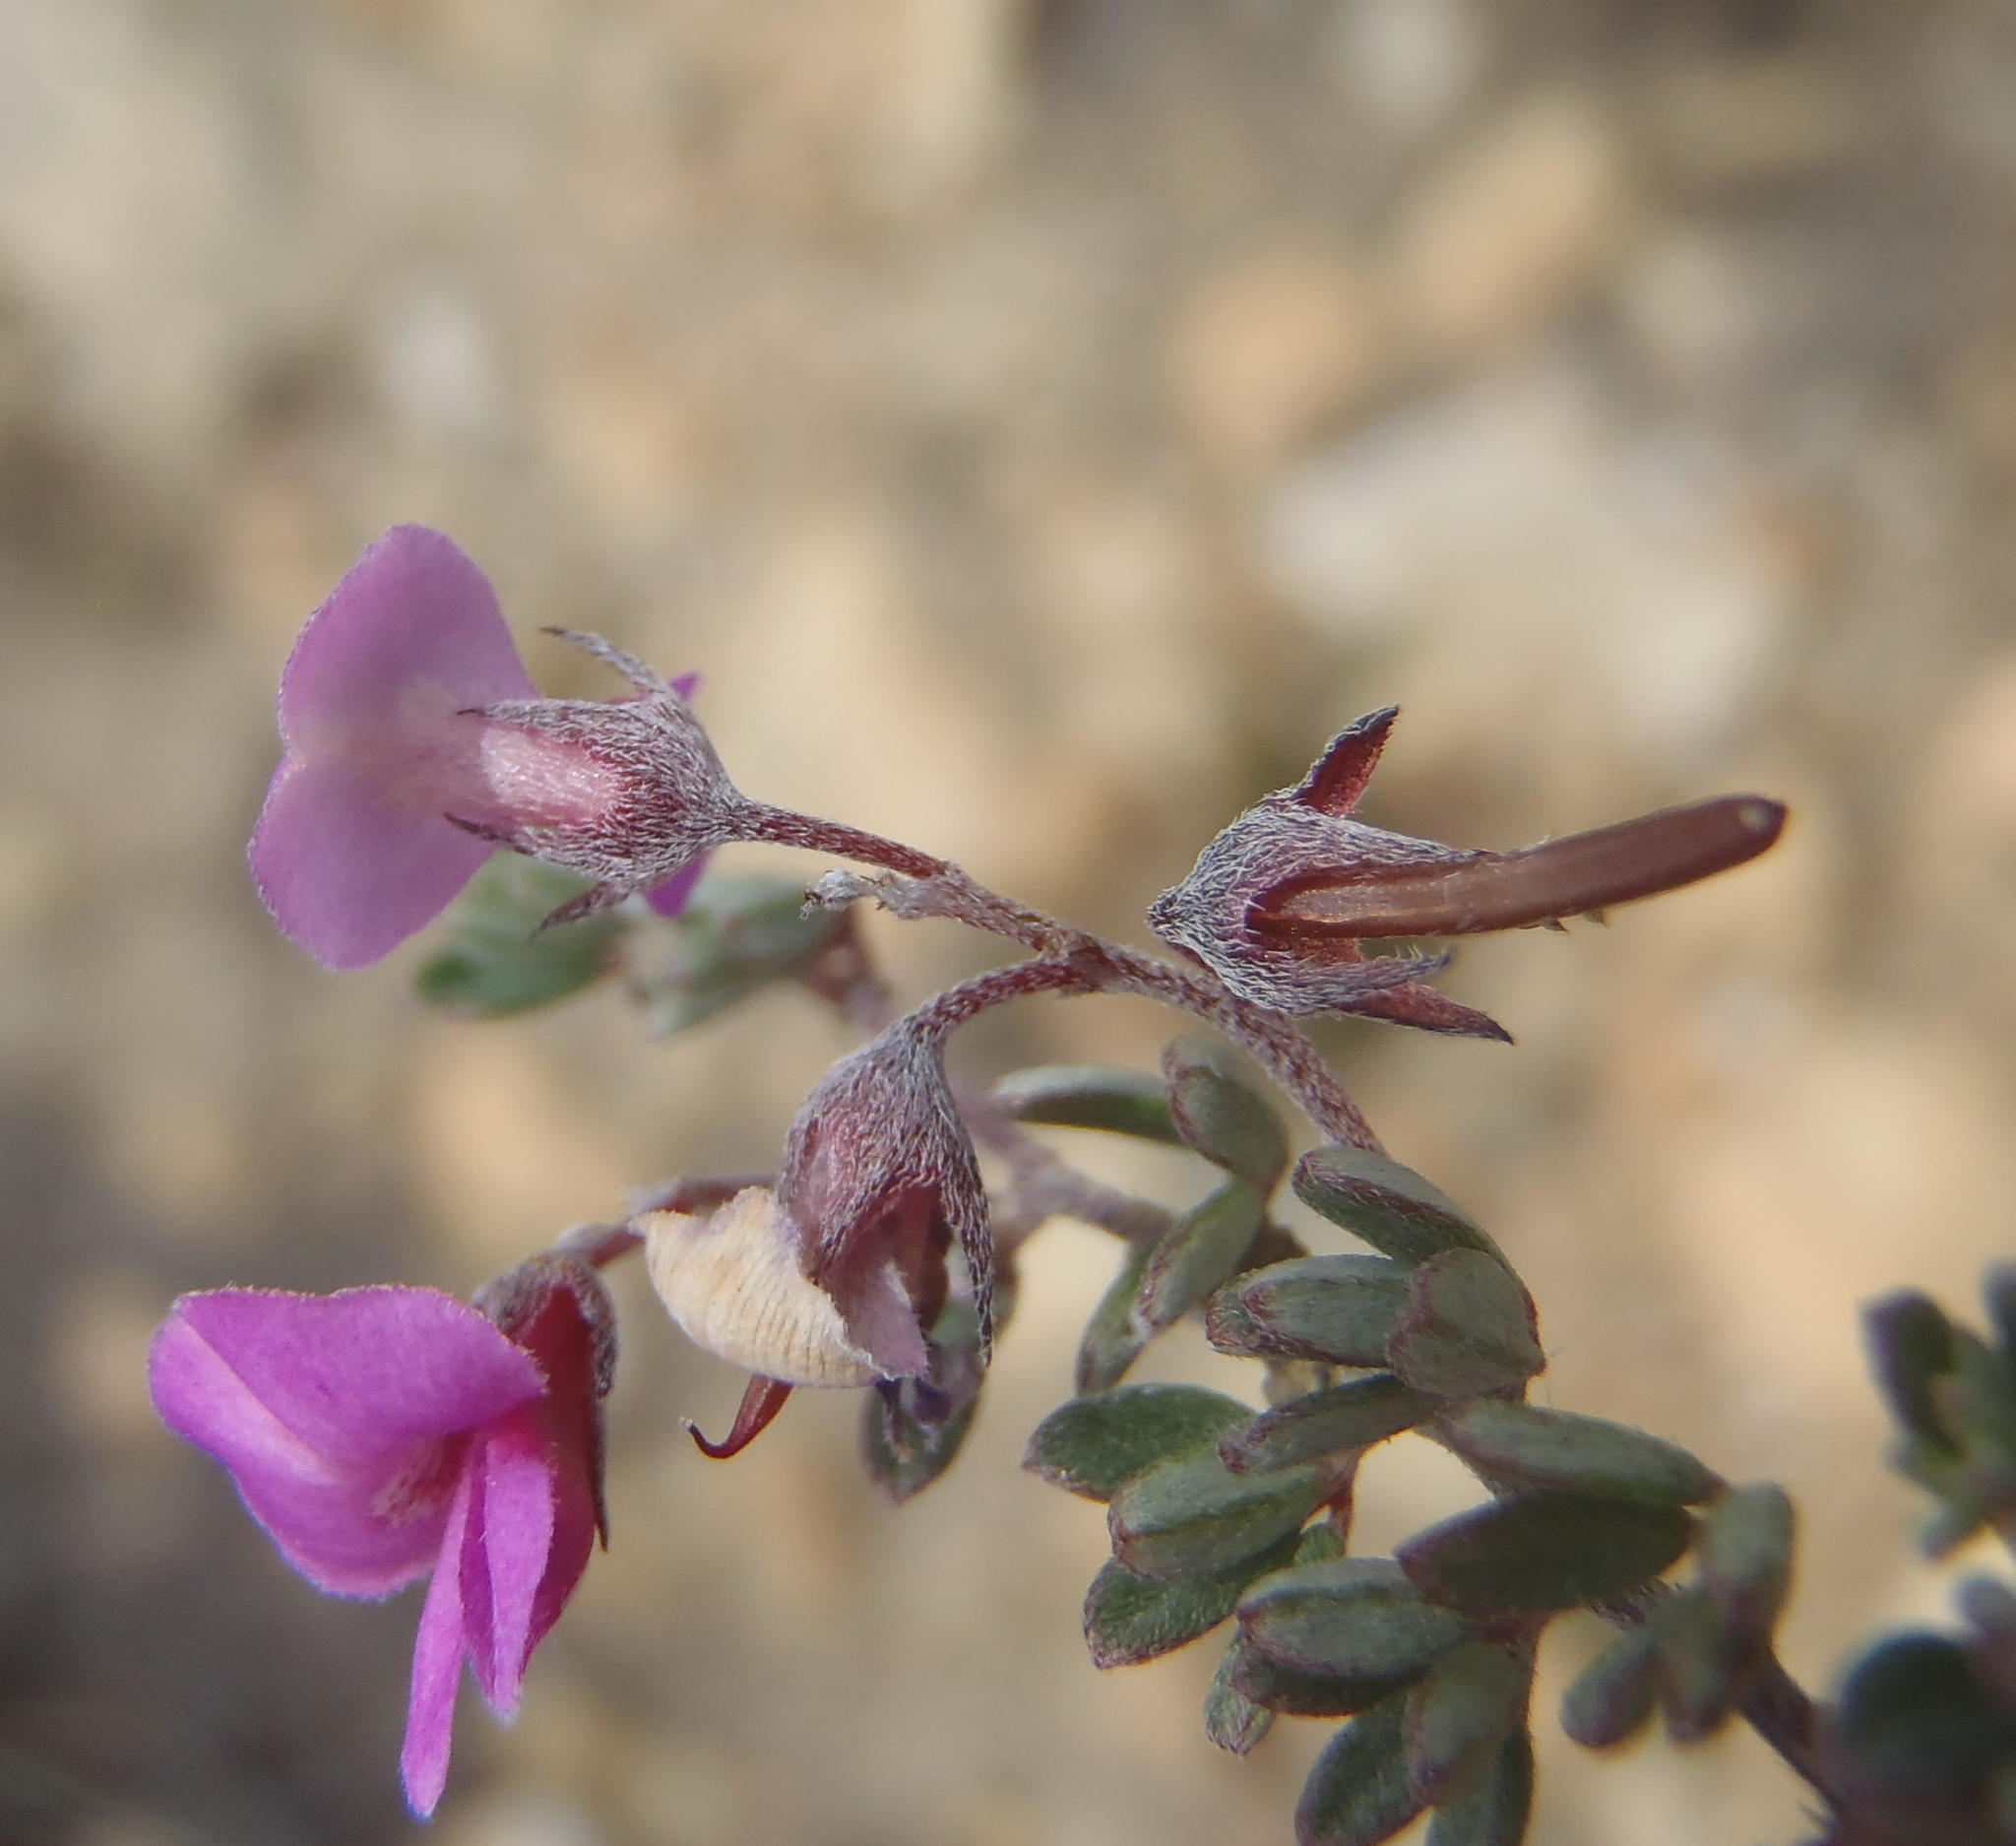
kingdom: Plantae
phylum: Tracheophyta
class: Magnoliopsida
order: Fabales
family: Fabaceae
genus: Indigofera
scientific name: Indigofera
